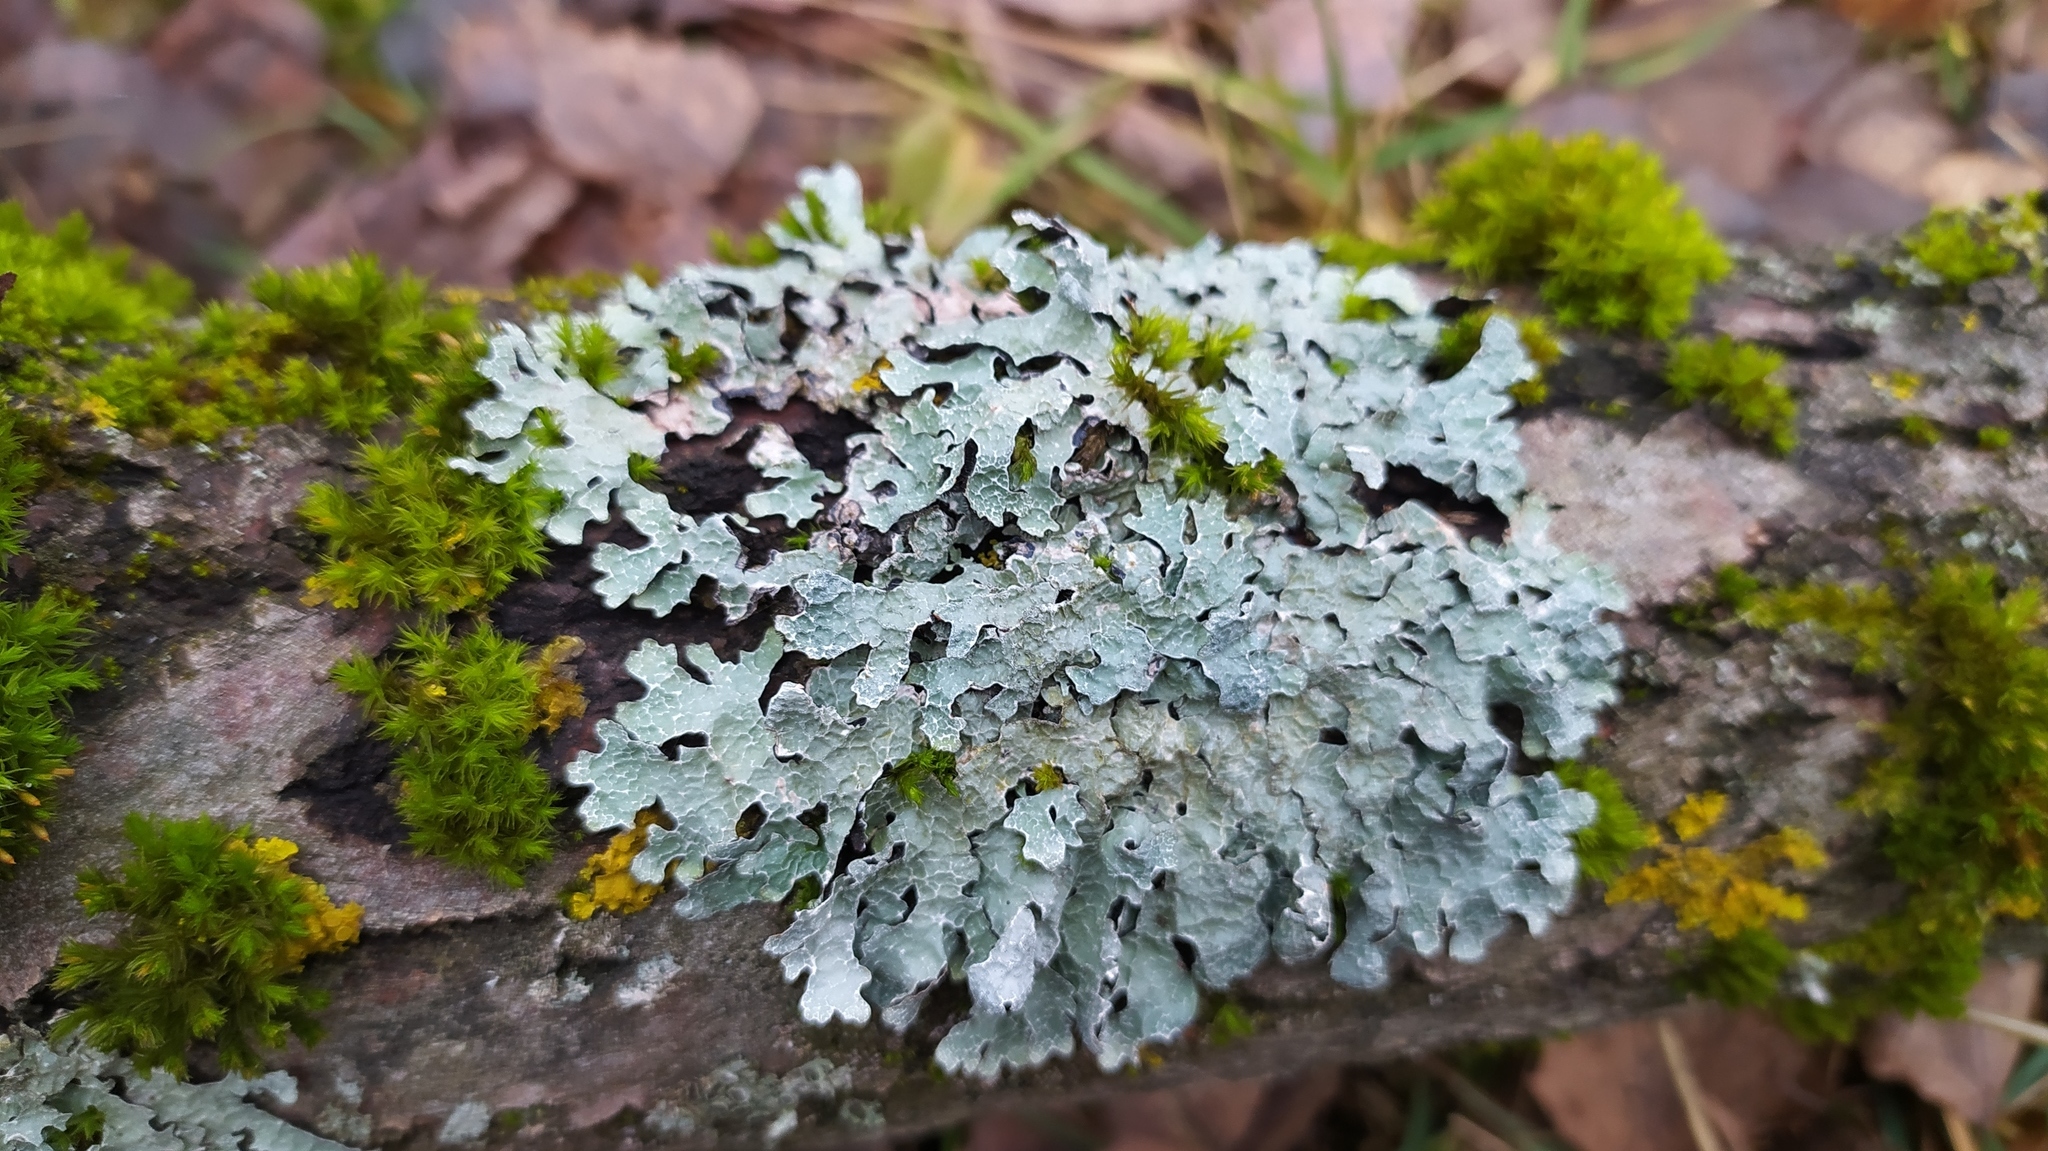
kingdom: Fungi
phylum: Ascomycota
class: Lecanoromycetes
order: Lecanorales
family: Parmeliaceae
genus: Parmelia
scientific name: Parmelia sulcata
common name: Netted shield lichen
